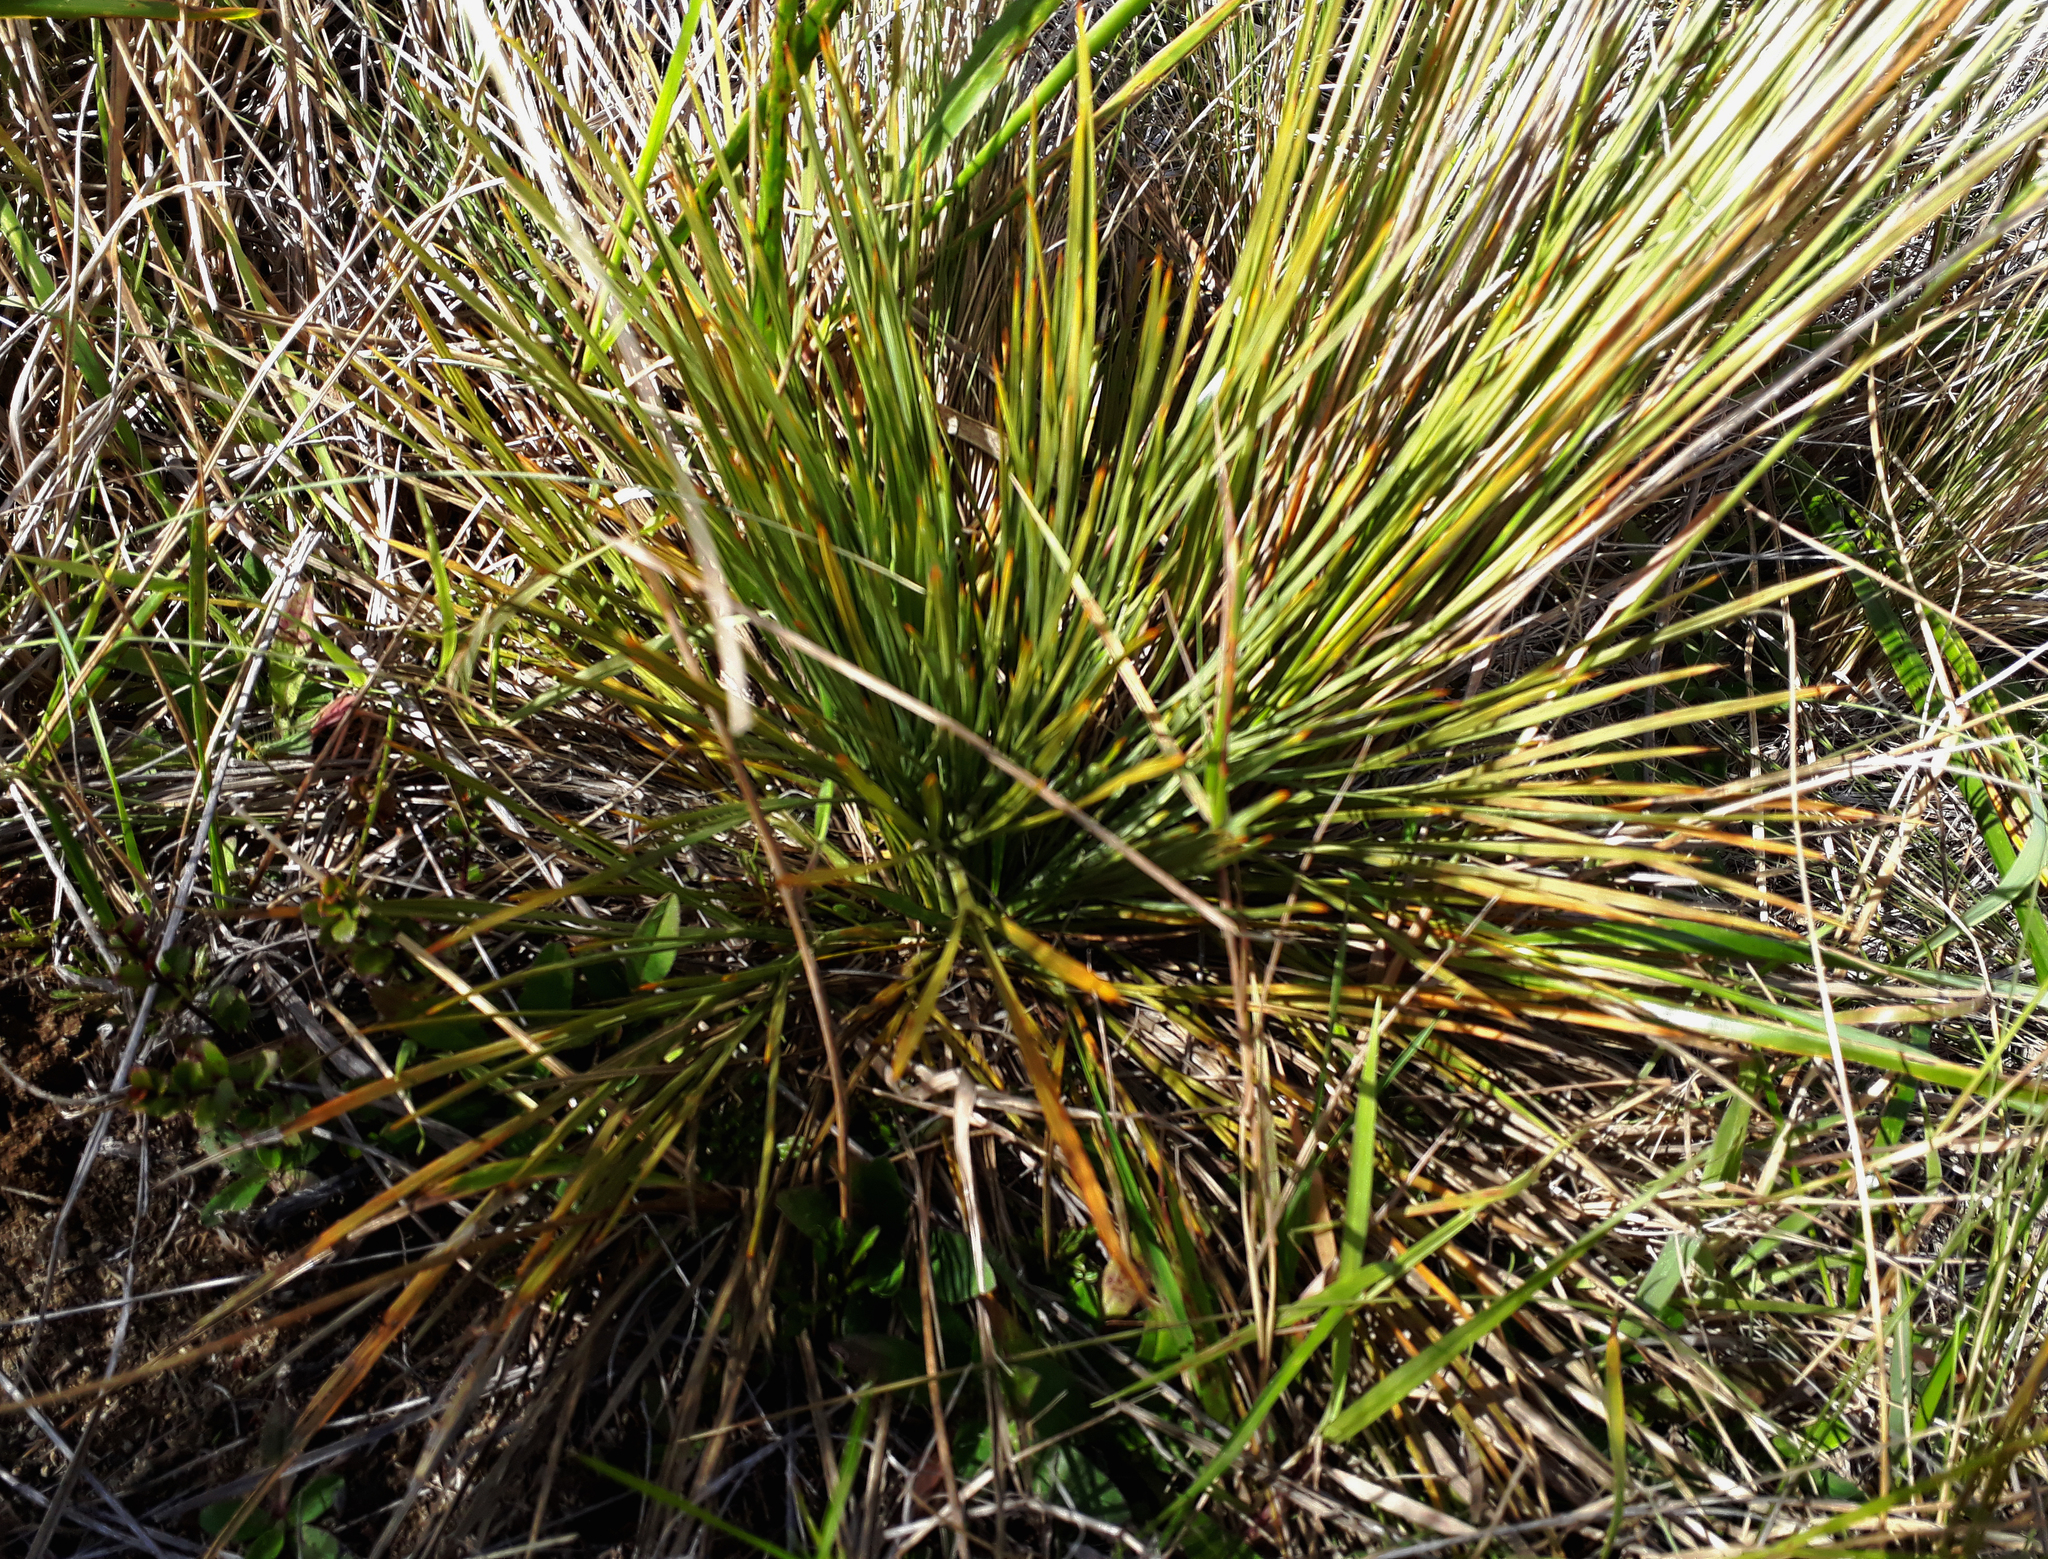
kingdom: Plantae
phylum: Tracheophyta
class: Magnoliopsida
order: Apiales
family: Apiaceae
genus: Aciphylla
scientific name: Aciphylla squarrosa
